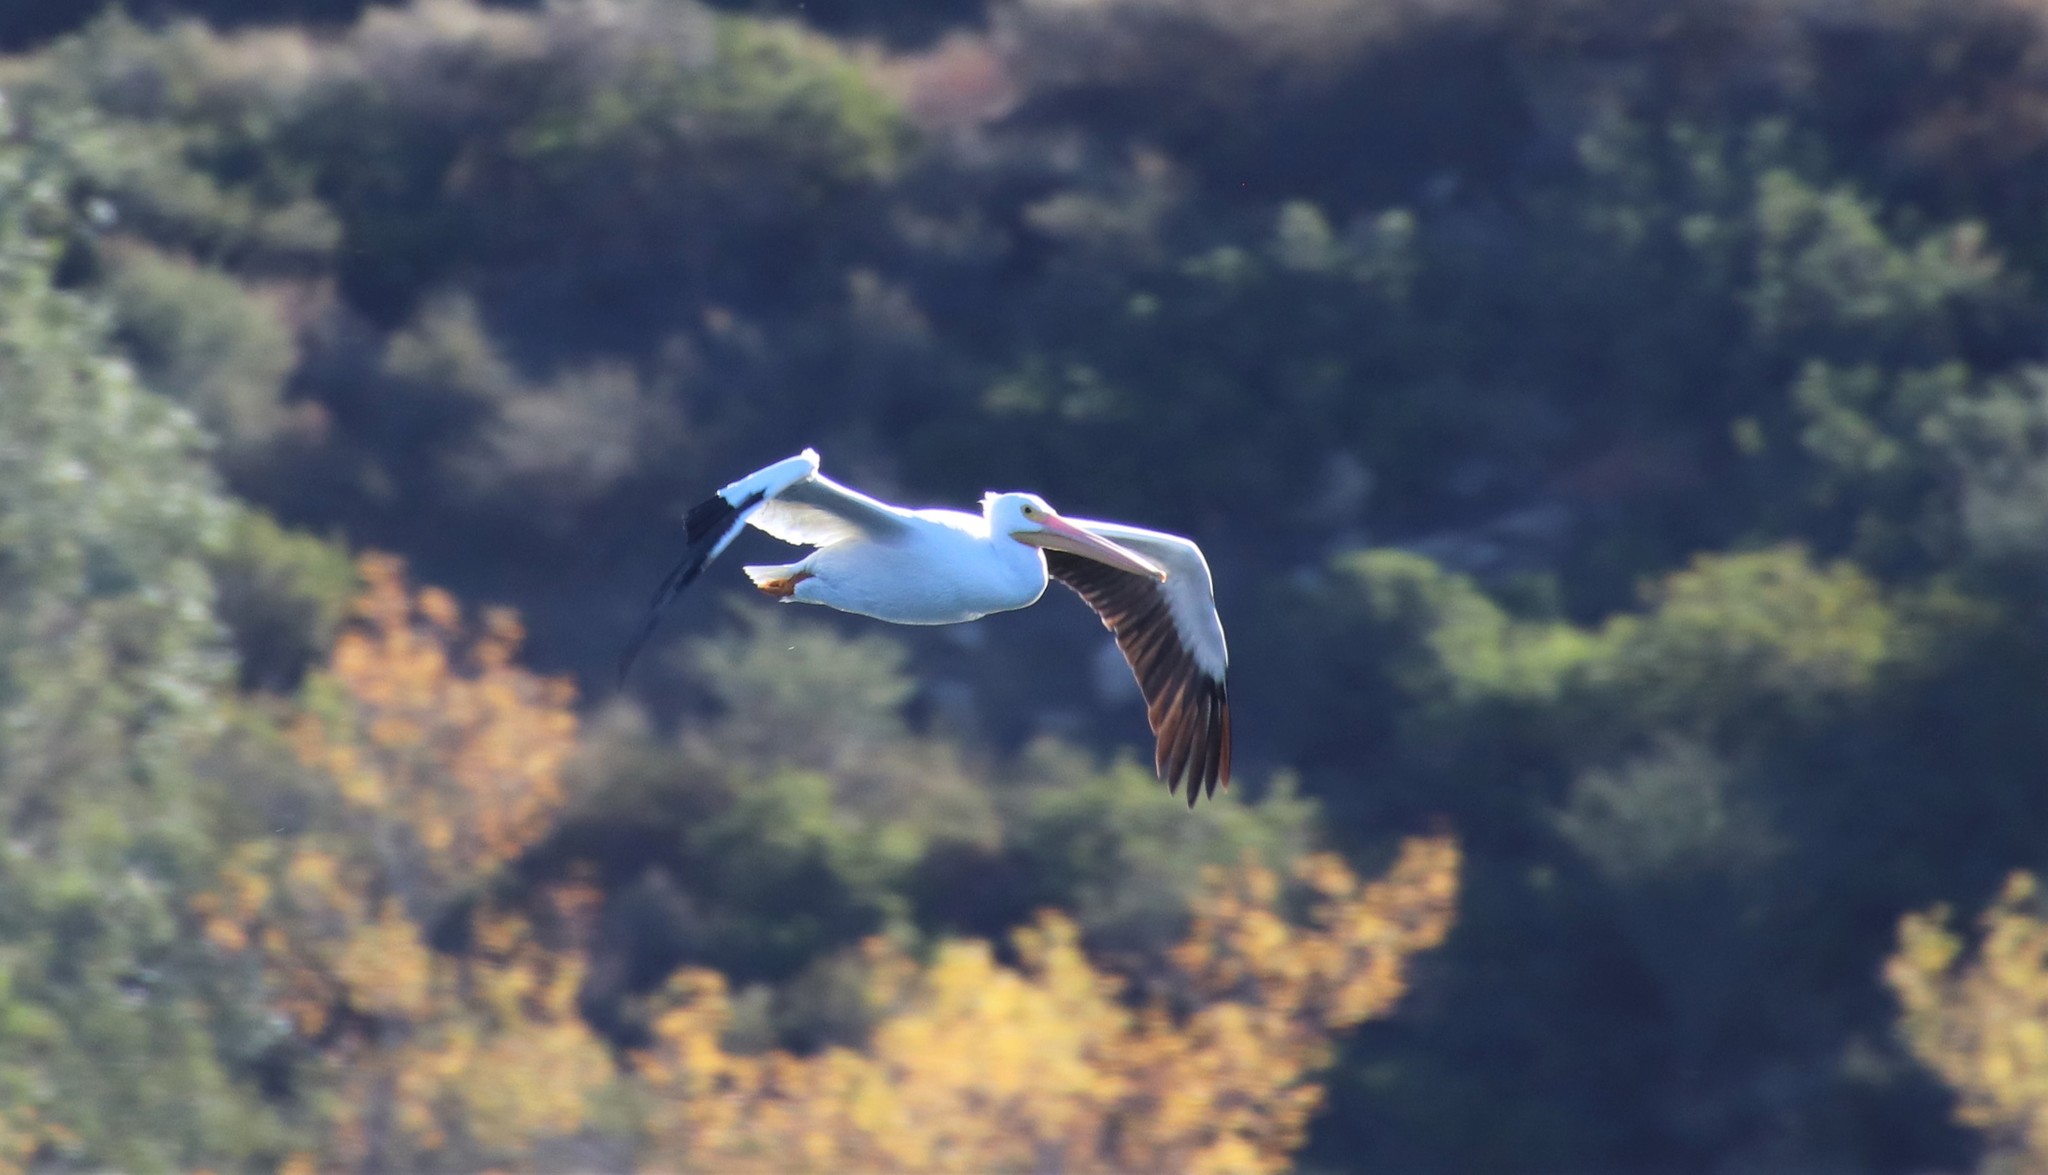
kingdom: Animalia
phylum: Chordata
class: Aves
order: Pelecaniformes
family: Pelecanidae
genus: Pelecanus
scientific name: Pelecanus erythrorhynchos
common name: American white pelican
